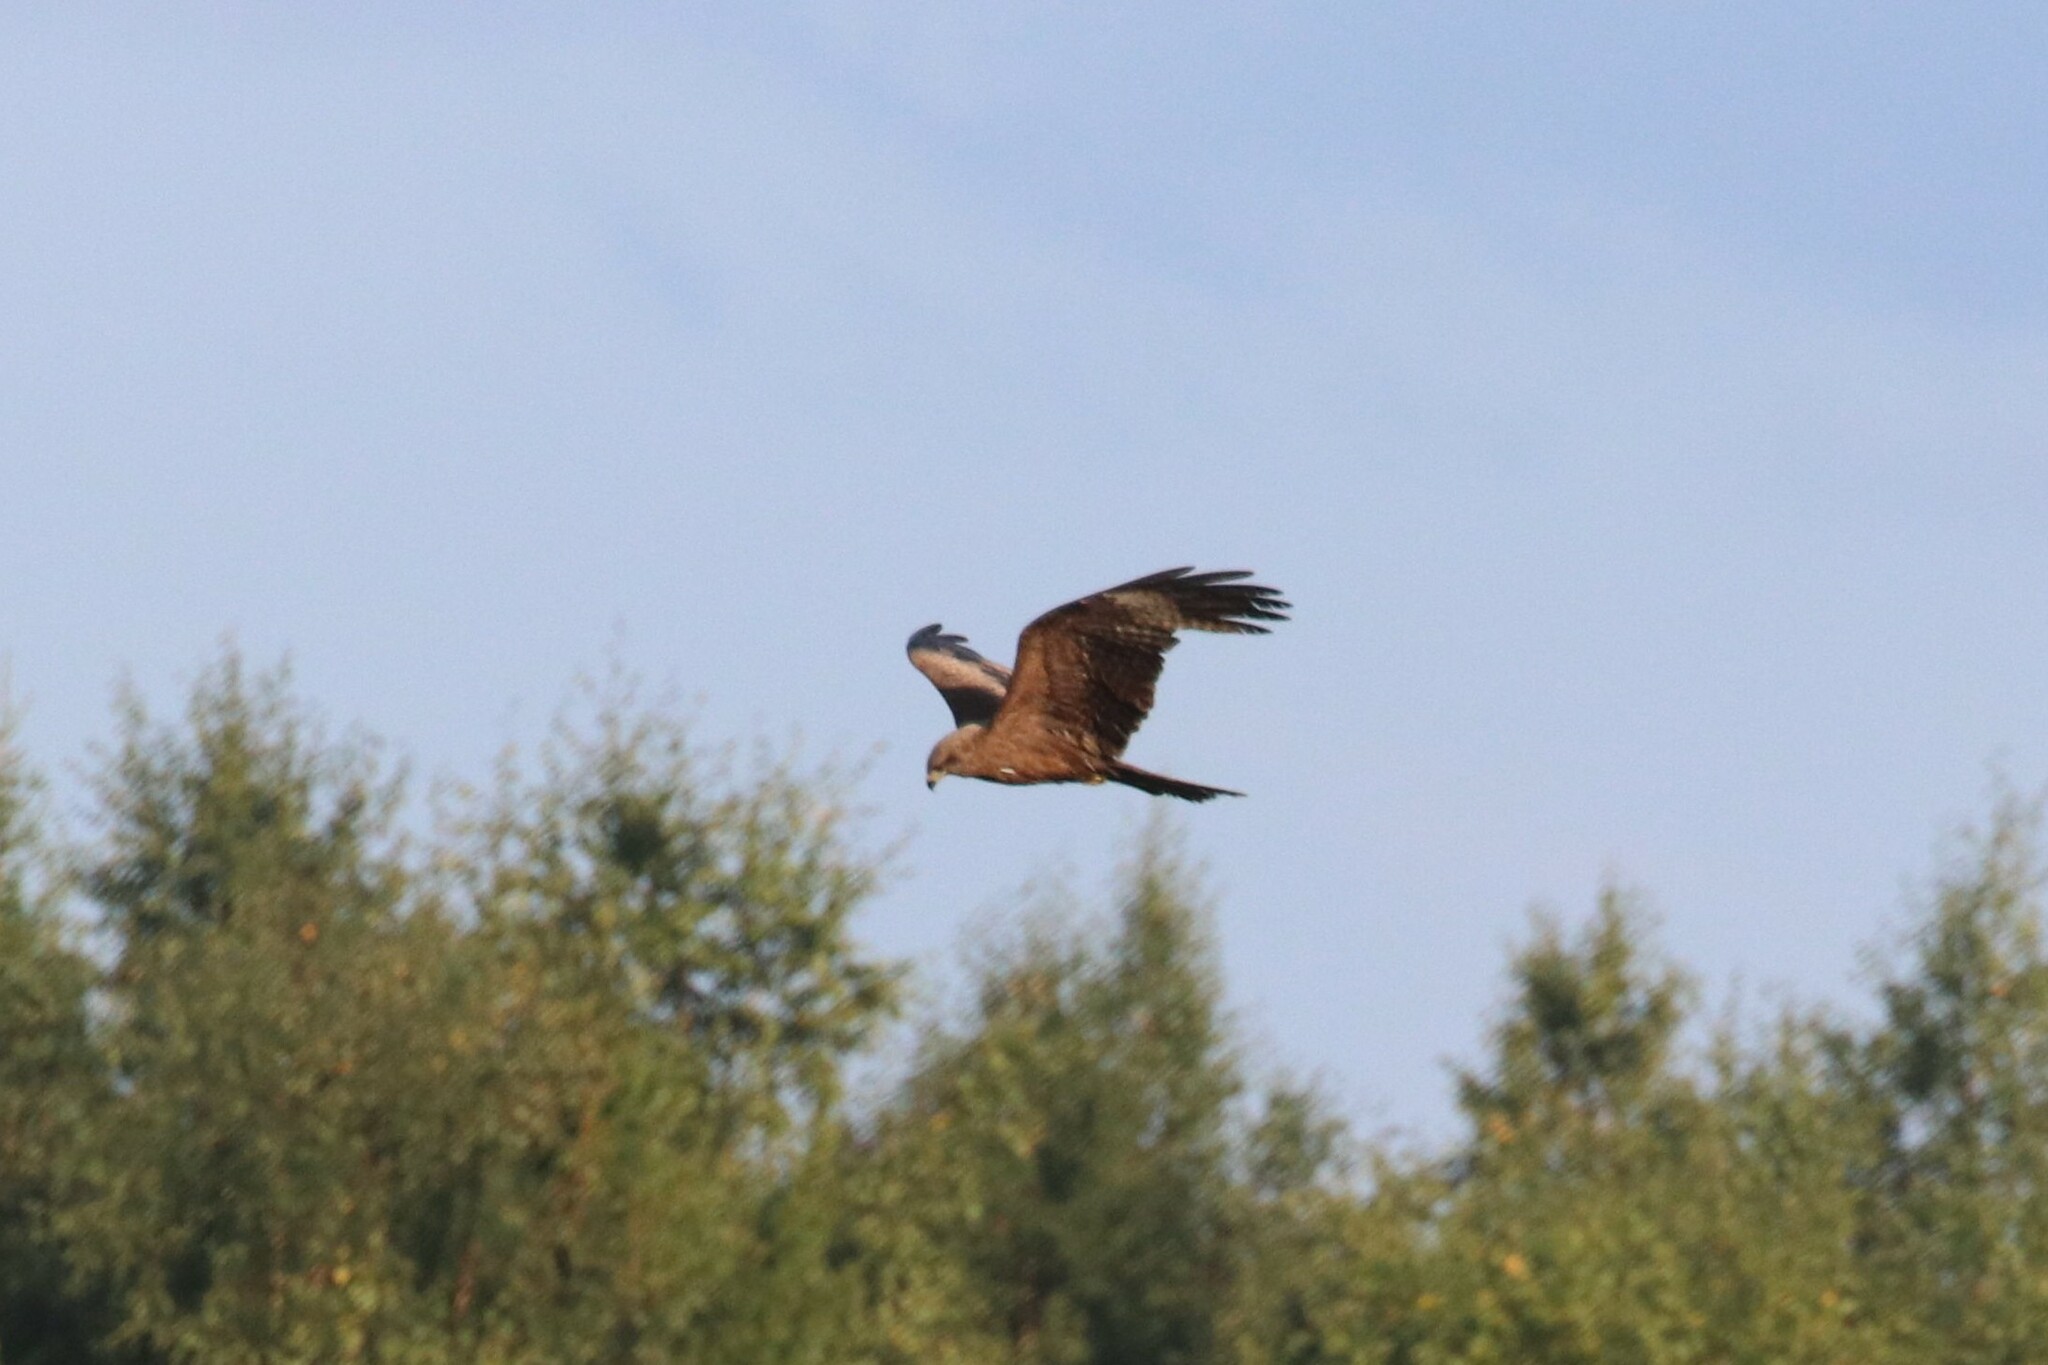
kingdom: Animalia
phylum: Chordata
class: Aves
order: Accipitriformes
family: Accipitridae
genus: Milvus
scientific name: Milvus migrans
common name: Black kite
